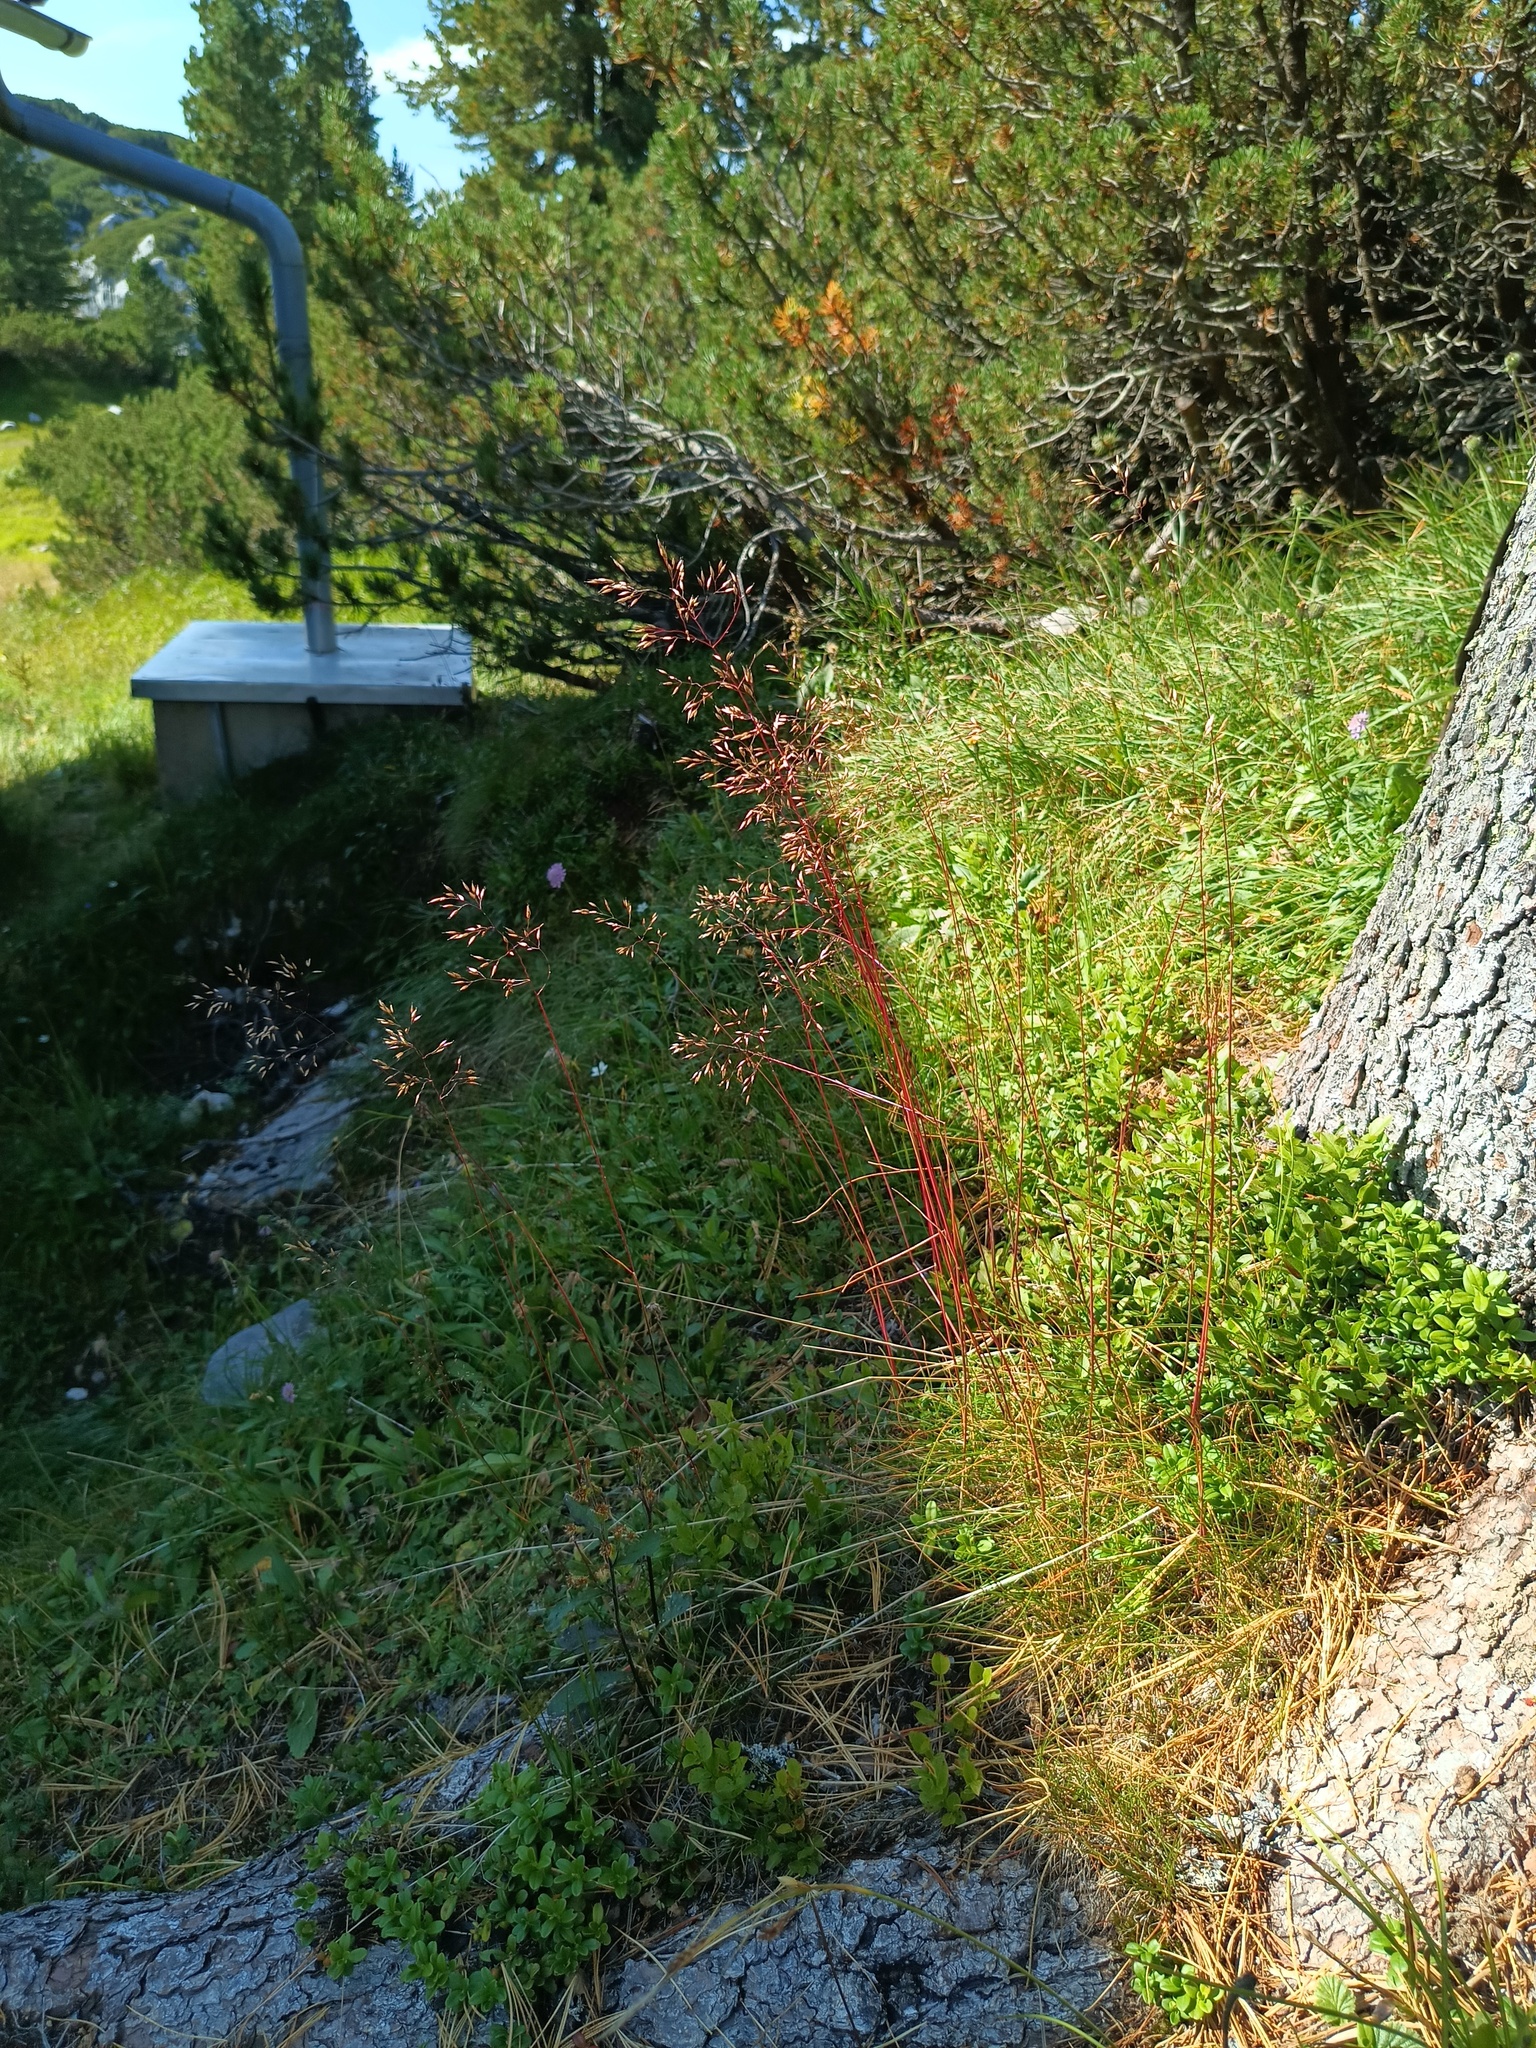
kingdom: Plantae
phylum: Tracheophyta
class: Liliopsida
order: Poales
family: Poaceae
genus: Avenella
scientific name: Avenella flexuosa
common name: Wavy hairgrass
